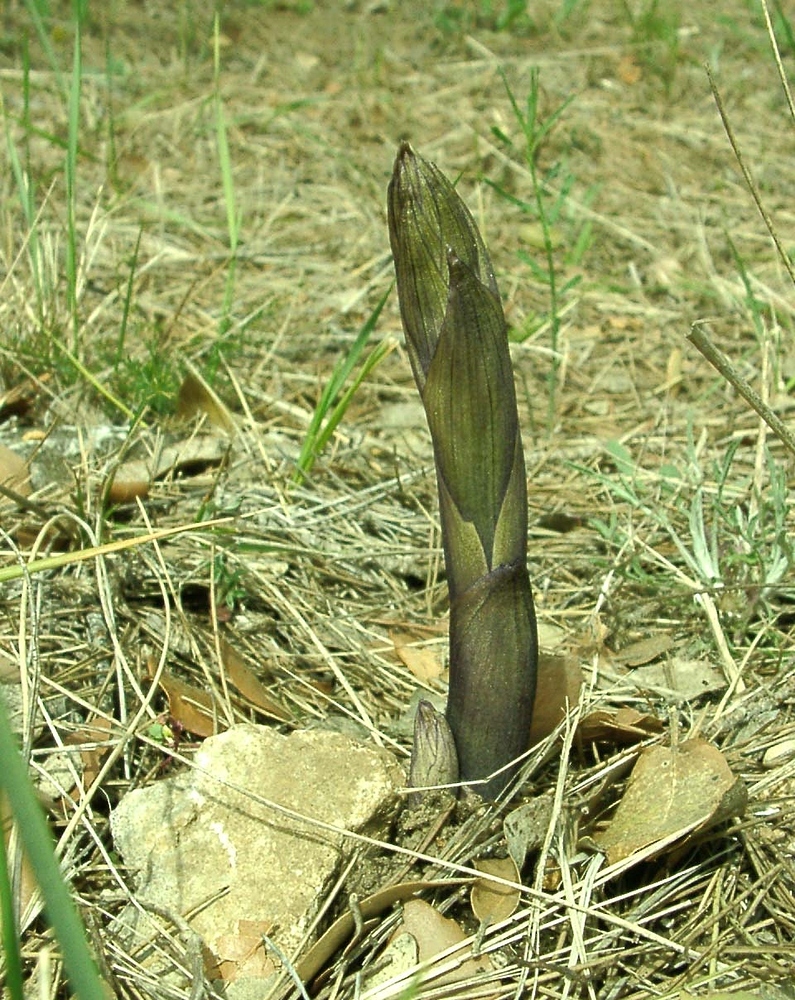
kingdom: Plantae
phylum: Tracheophyta
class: Liliopsida
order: Asparagales
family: Orchidaceae
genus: Limodorum
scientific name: Limodorum abortivum
